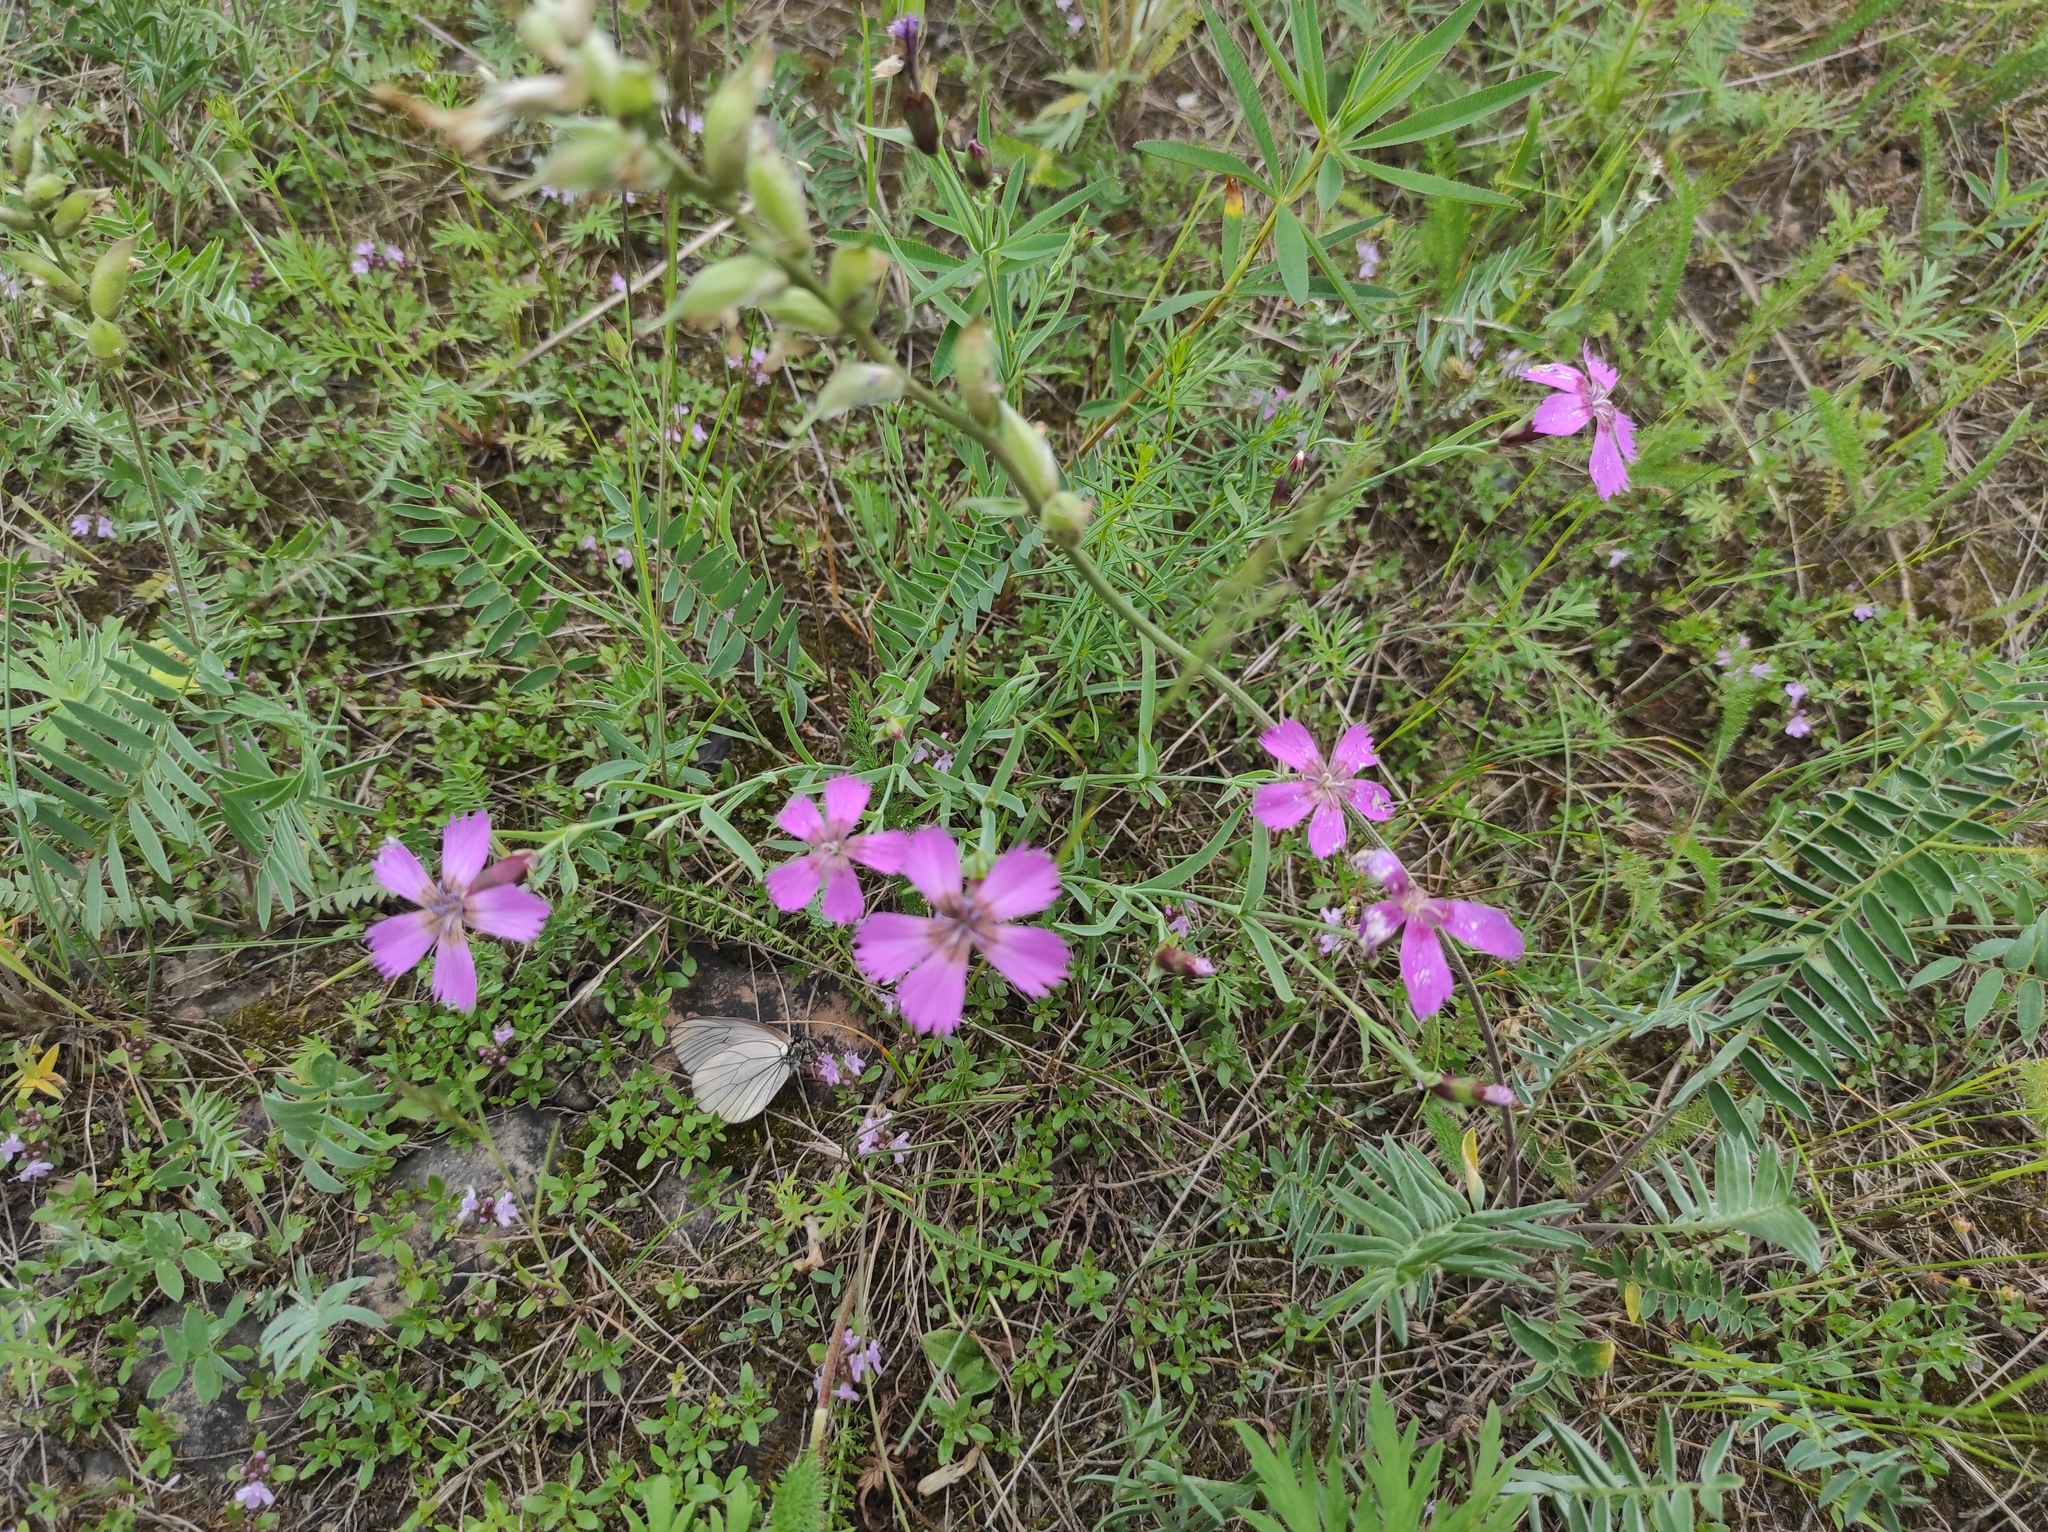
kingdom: Plantae
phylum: Tracheophyta
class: Magnoliopsida
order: Caryophyllales
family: Caryophyllaceae
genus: Dianthus
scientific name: Dianthus repens
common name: Northern pink
